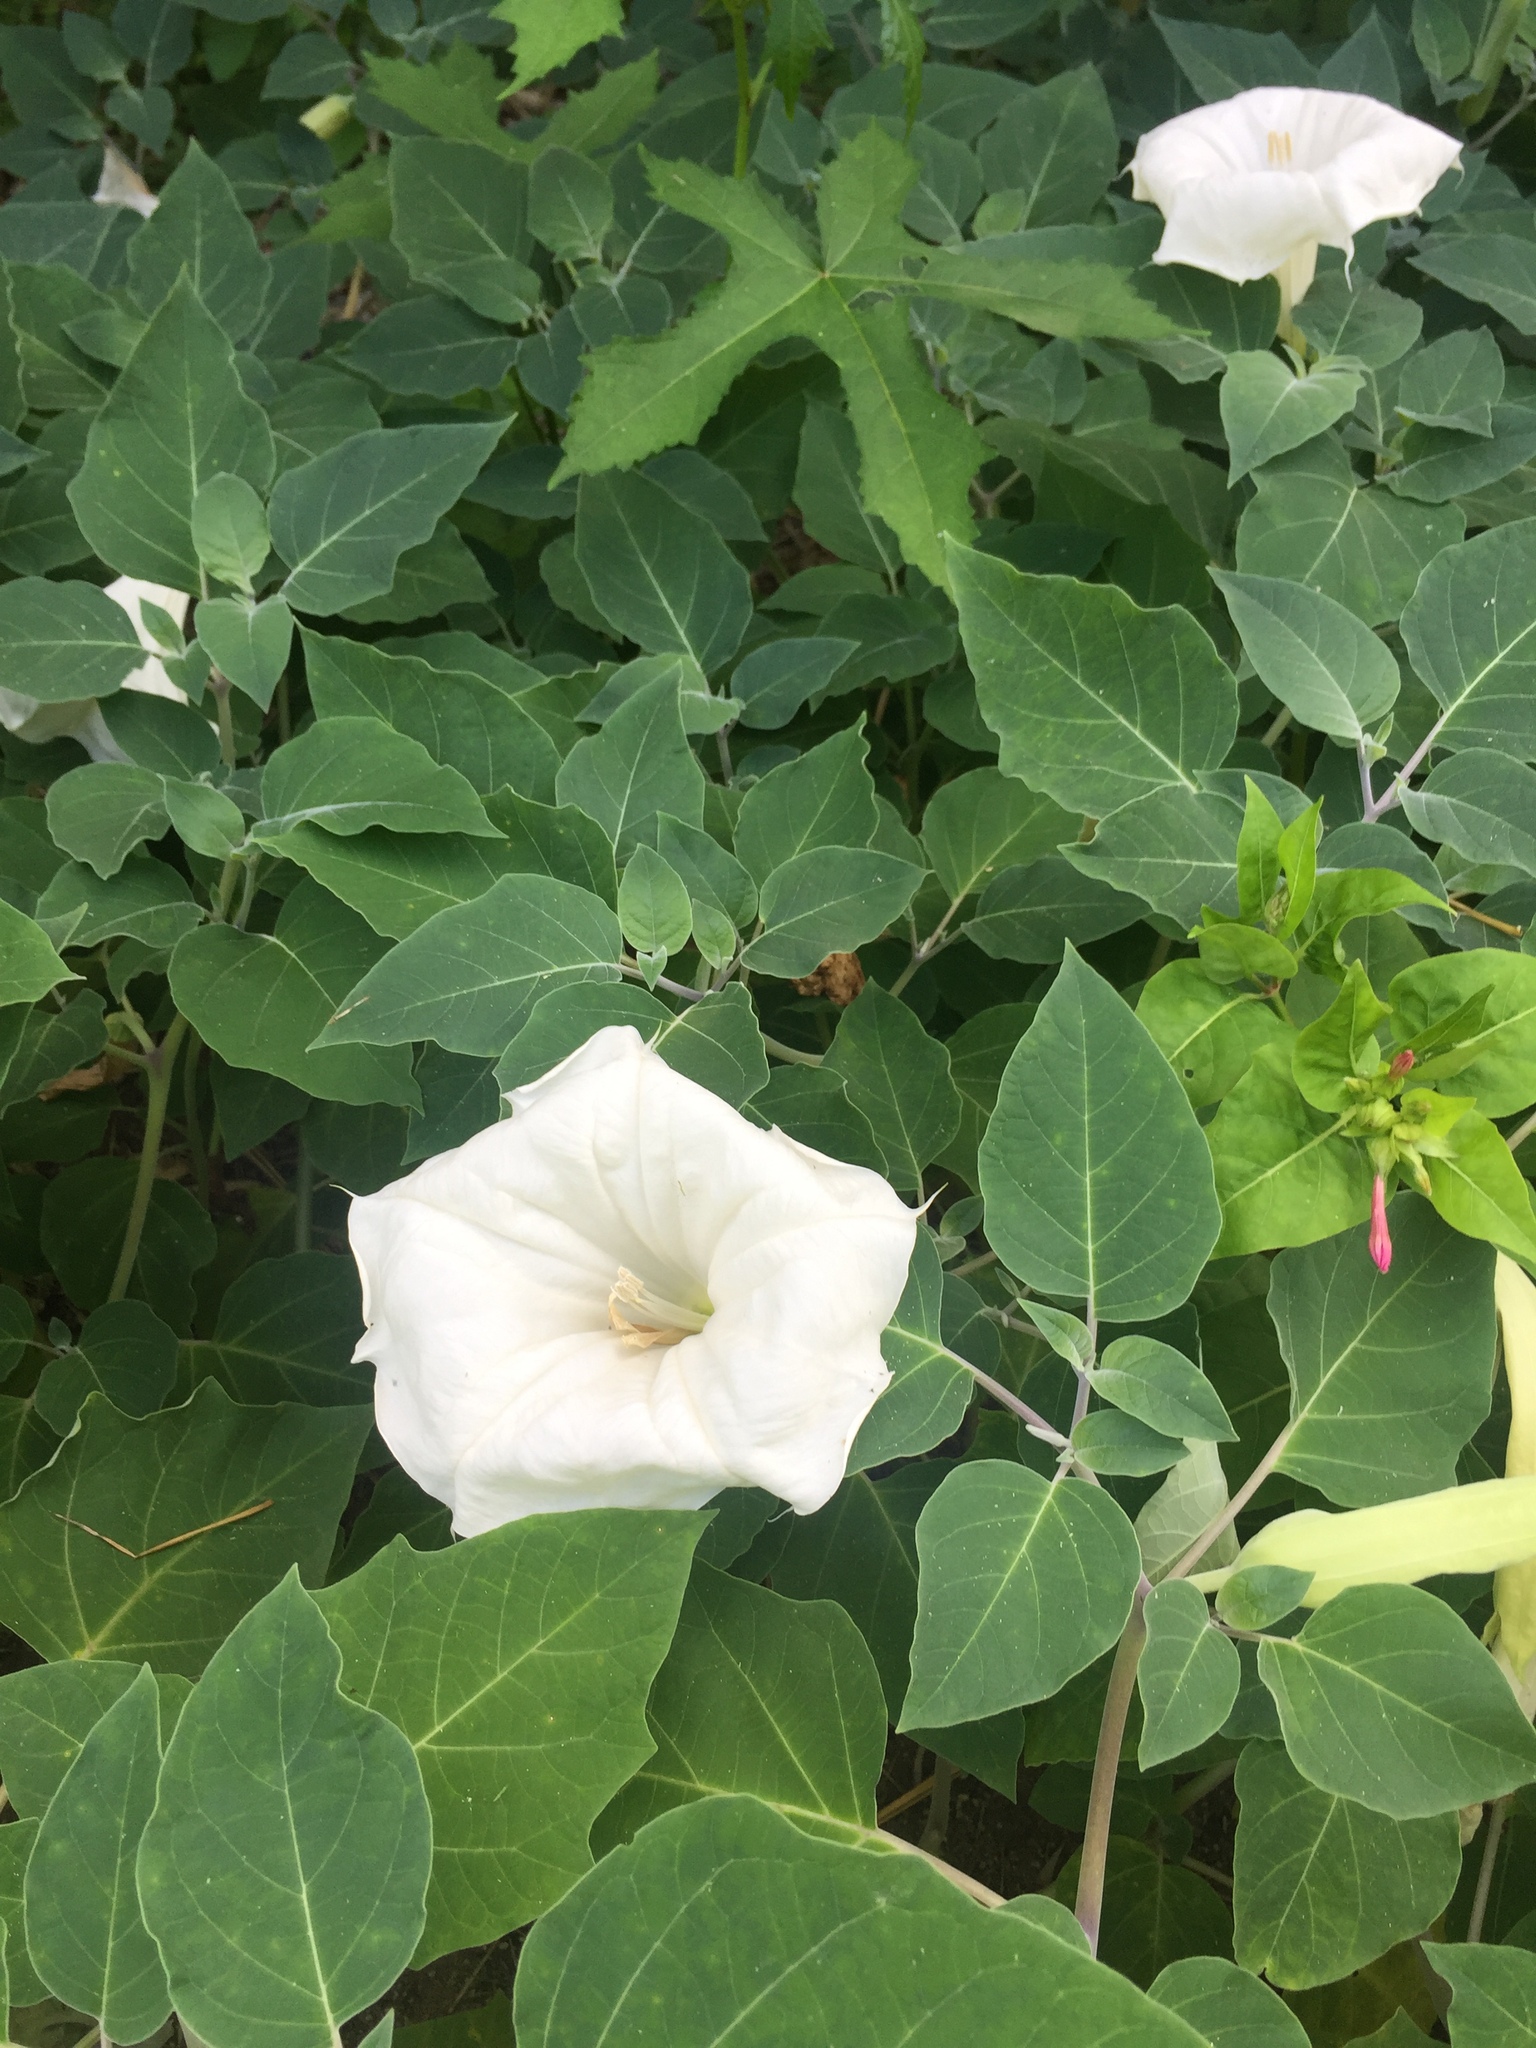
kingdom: Plantae
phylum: Tracheophyta
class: Magnoliopsida
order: Solanales
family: Solanaceae
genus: Datura
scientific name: Datura wrightii
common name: Sacred thorn-apple
